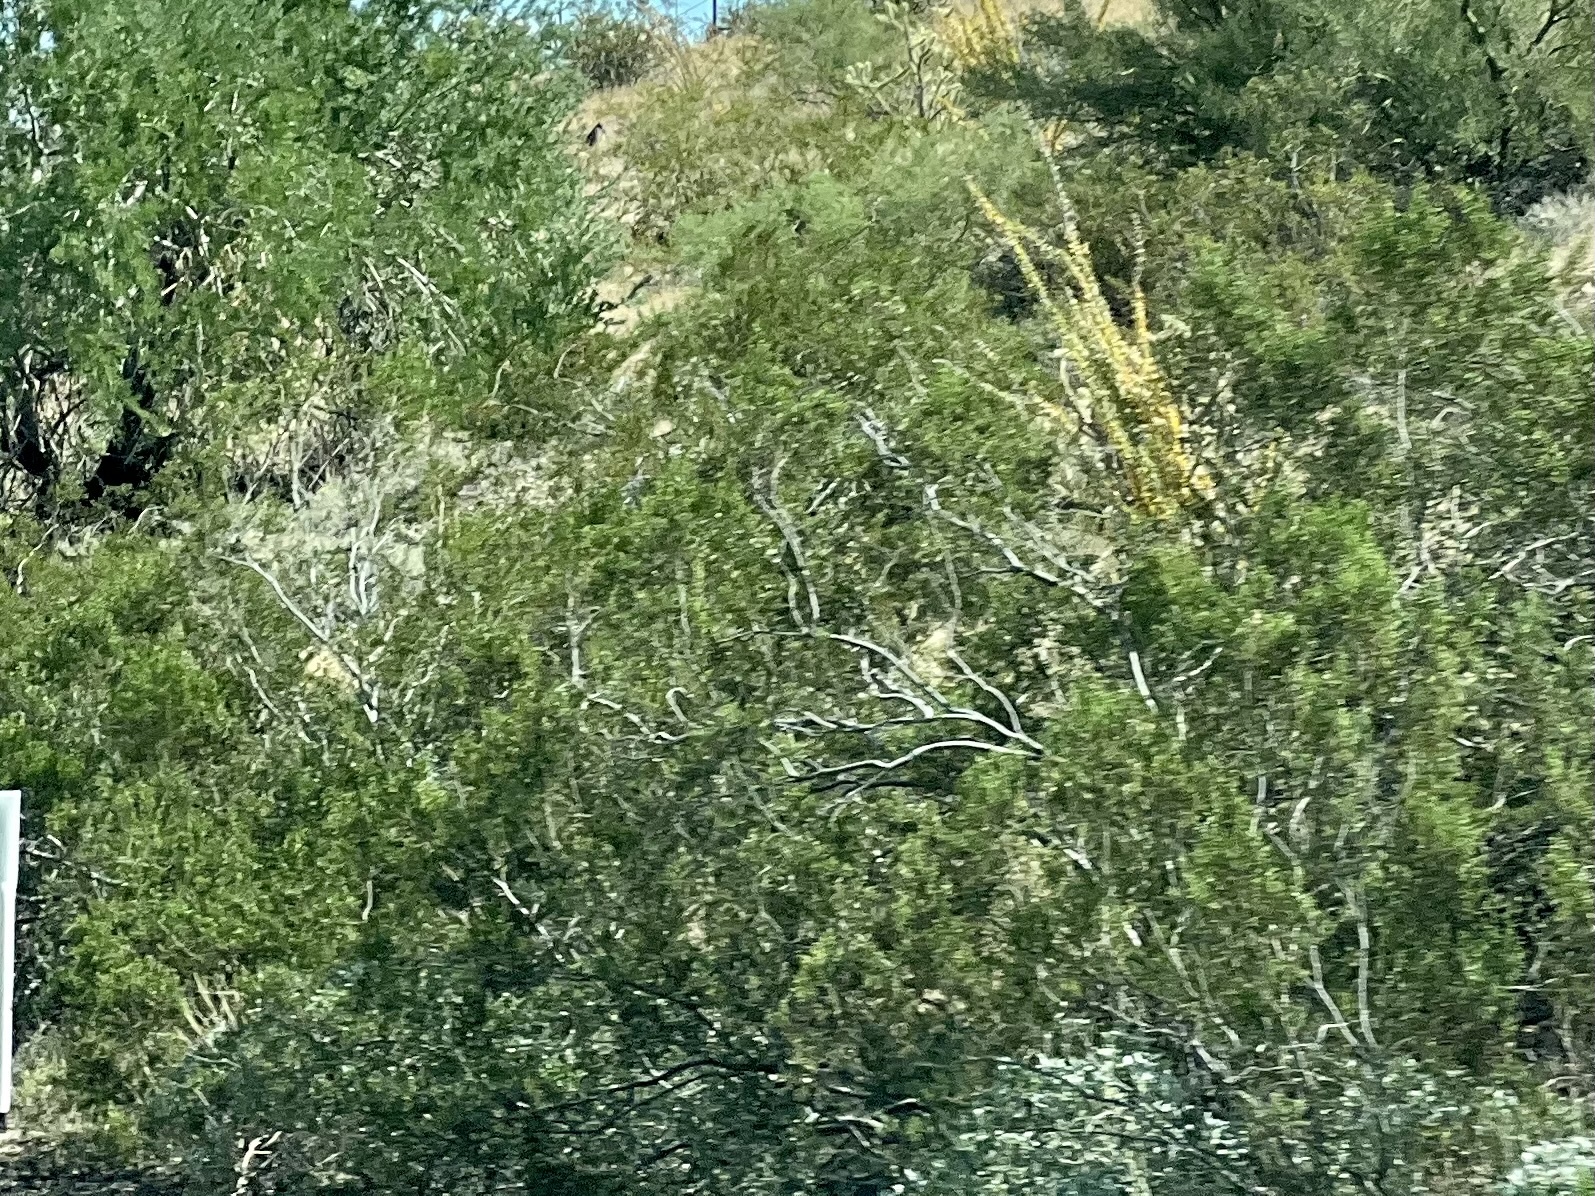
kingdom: Plantae
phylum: Tracheophyta
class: Magnoliopsida
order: Zygophyllales
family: Zygophyllaceae
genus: Larrea
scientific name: Larrea tridentata
